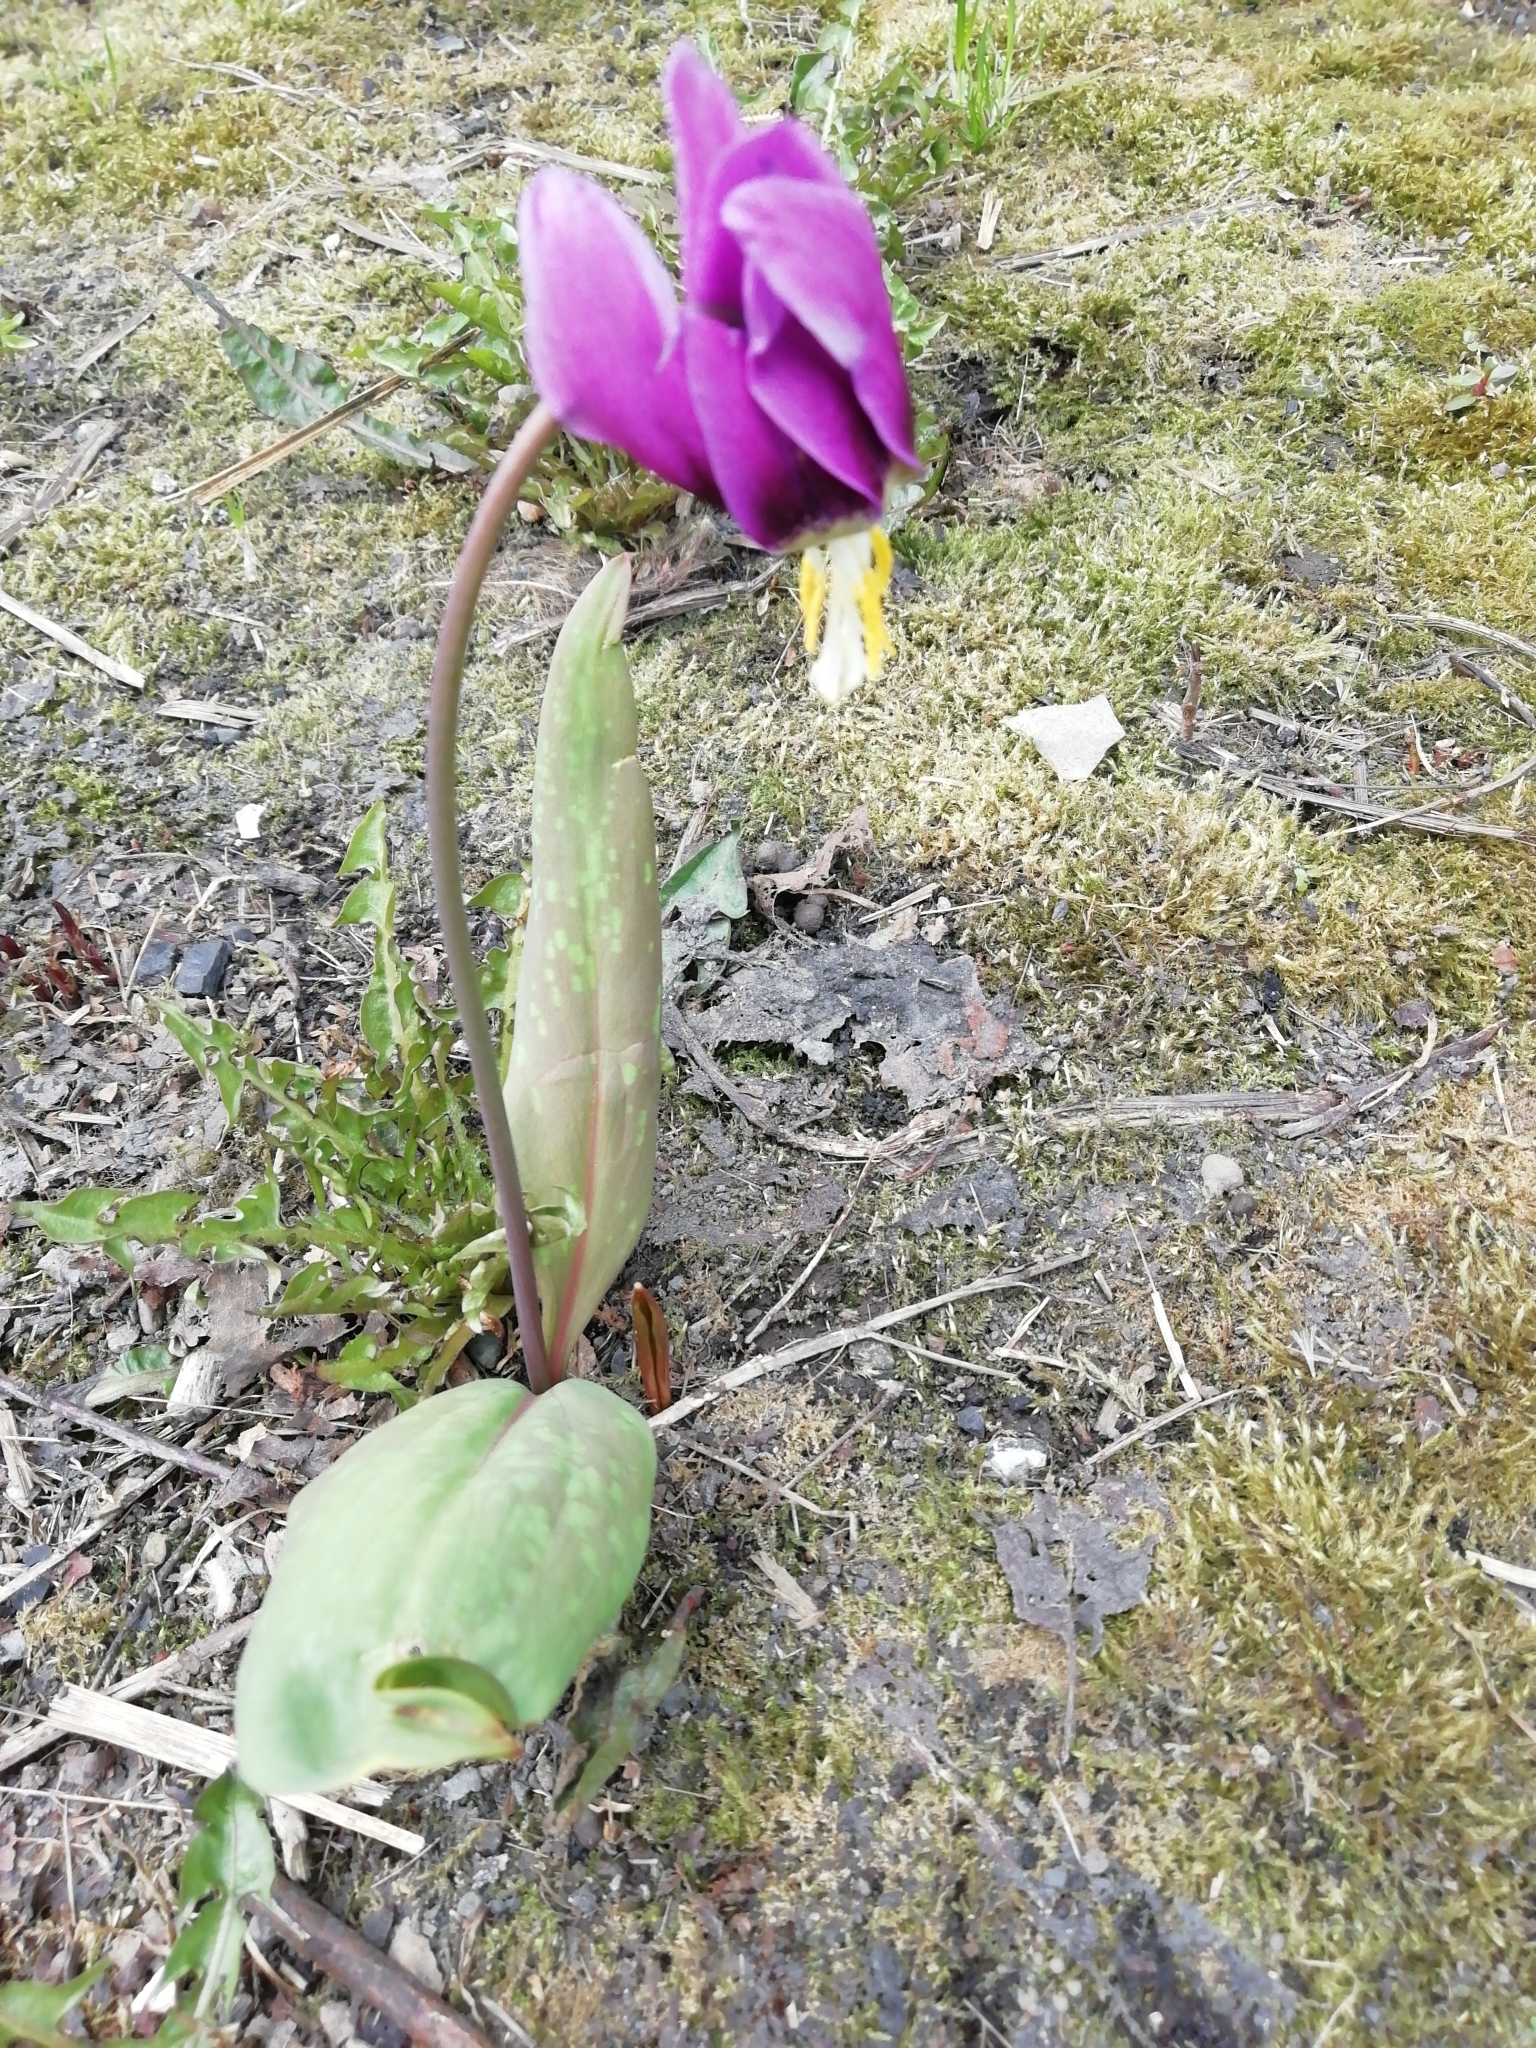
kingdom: Plantae
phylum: Tracheophyta
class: Liliopsida
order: Liliales
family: Liliaceae
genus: Erythronium
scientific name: Erythronium sibiricum
